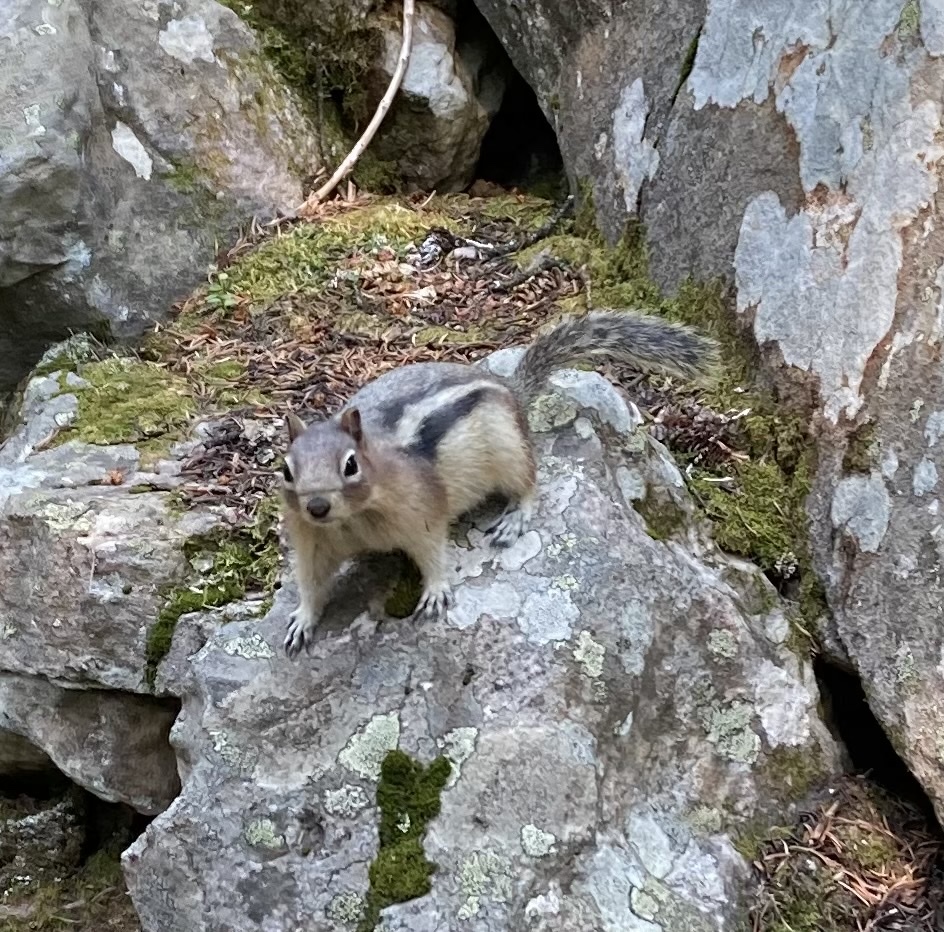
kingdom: Animalia
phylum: Chordata
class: Mammalia
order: Rodentia
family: Sciuridae
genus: Callospermophilus
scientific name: Callospermophilus lateralis
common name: Golden-mantled ground squirrel
